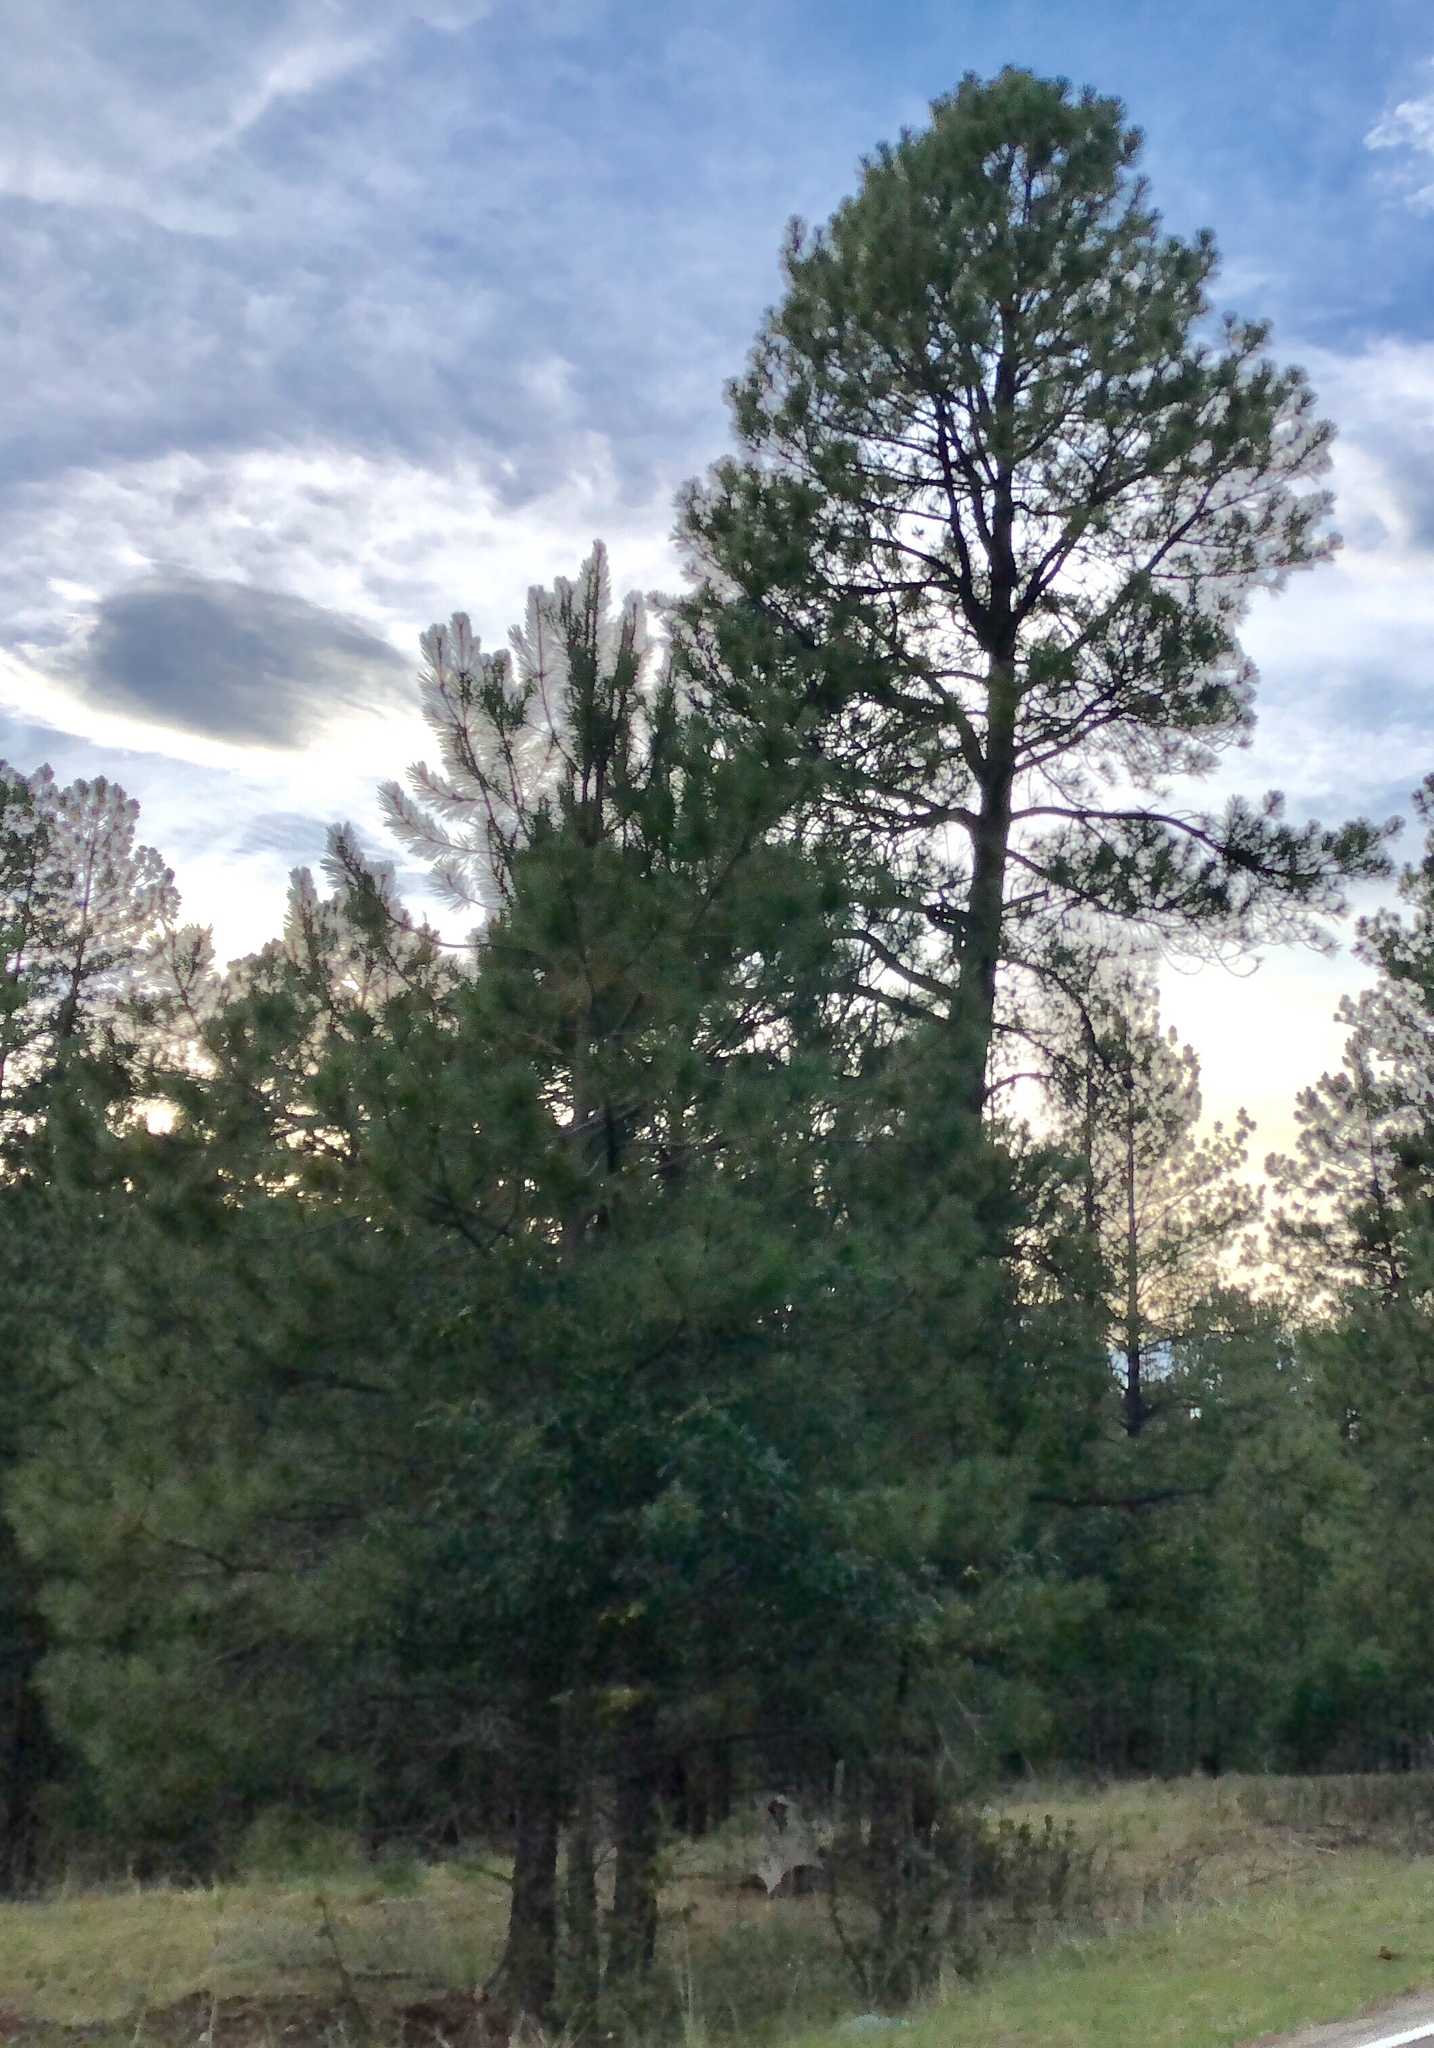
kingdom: Plantae
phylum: Tracheophyta
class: Pinopsida
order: Pinales
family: Pinaceae
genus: Pinus
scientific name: Pinus ponderosa
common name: Western yellow-pine
